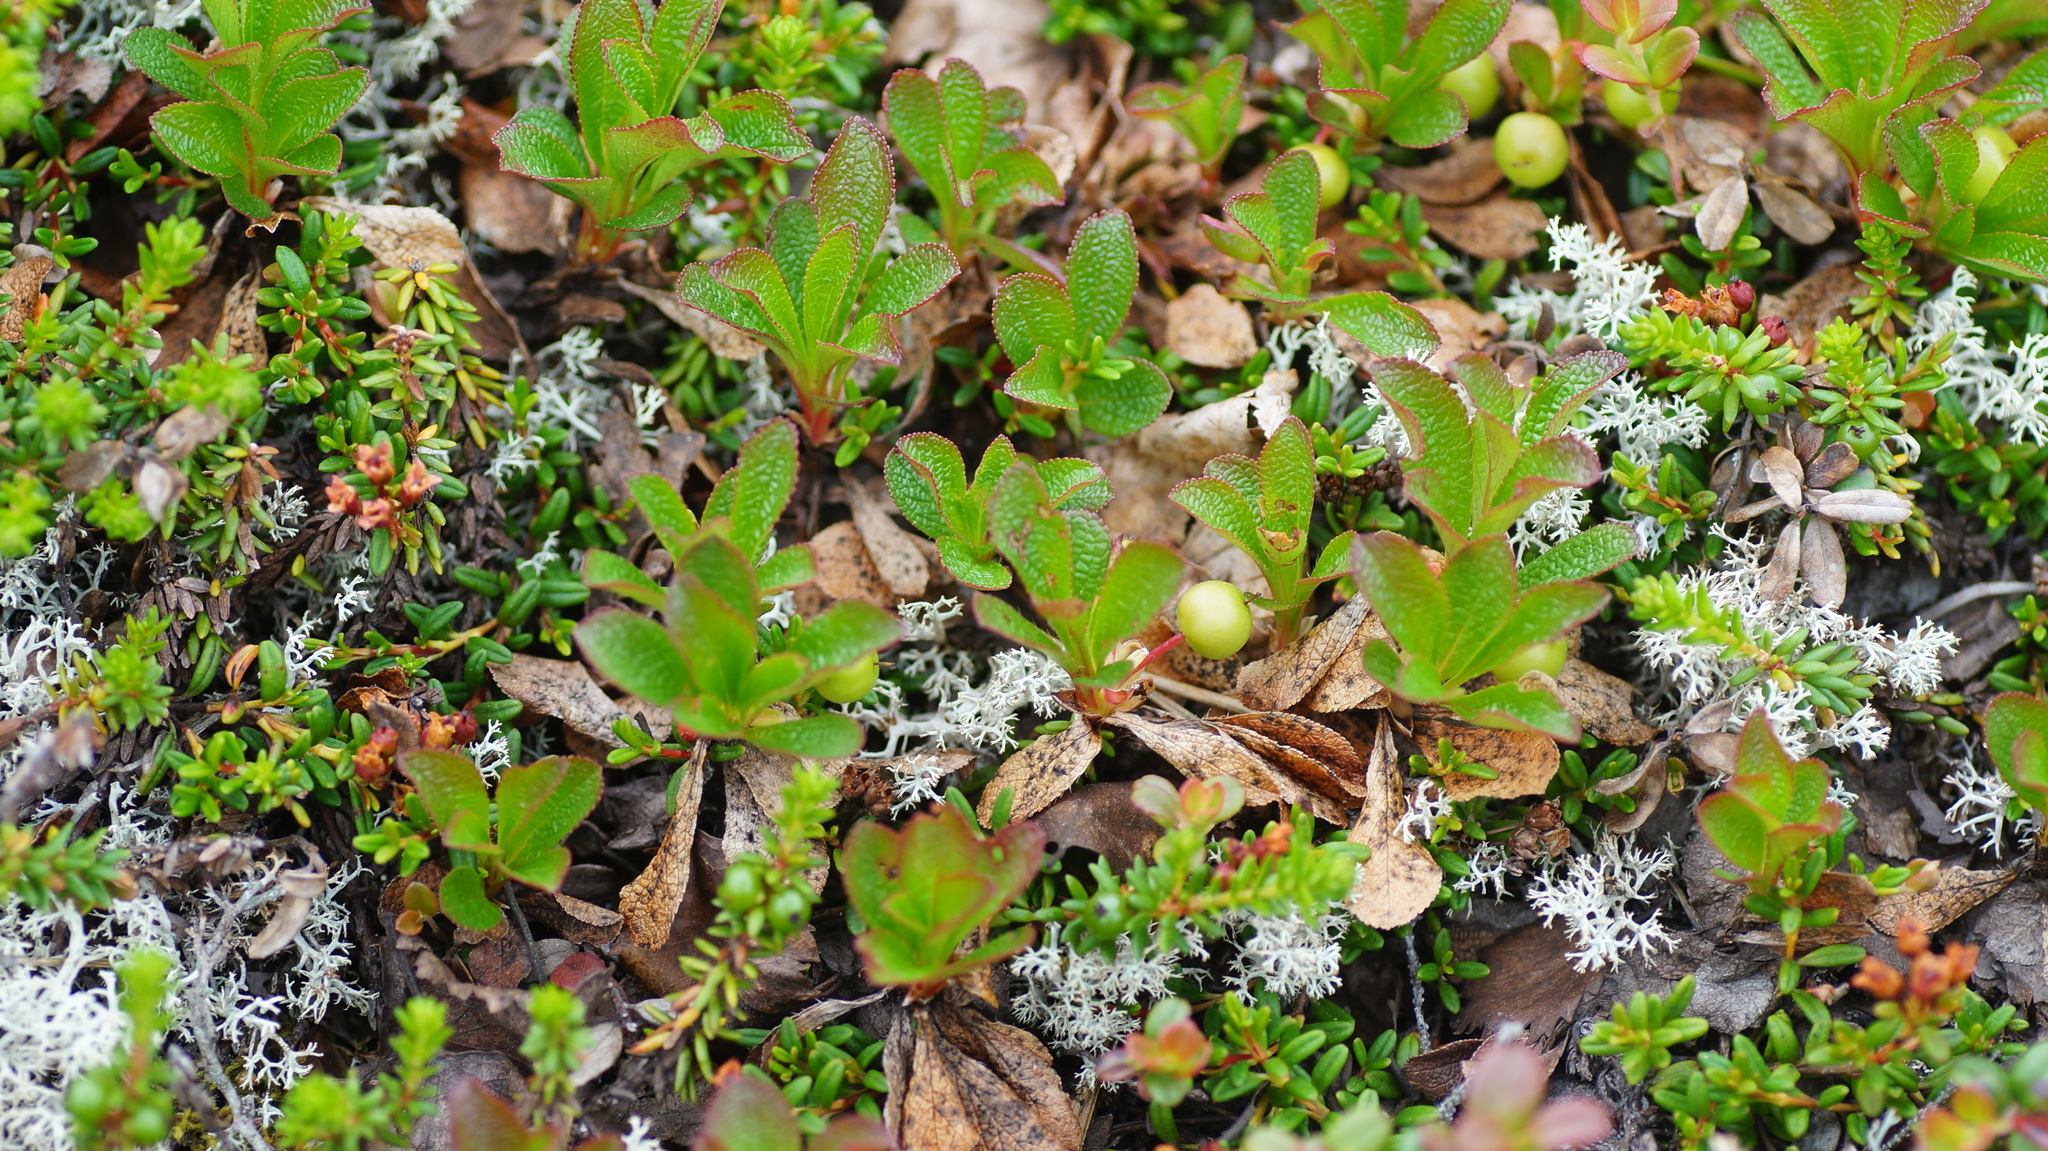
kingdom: Plantae
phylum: Tracheophyta
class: Magnoliopsida
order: Ericales
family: Ericaceae
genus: Arctostaphylos
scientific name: Arctostaphylos alpinus
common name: Alpine bearberry
